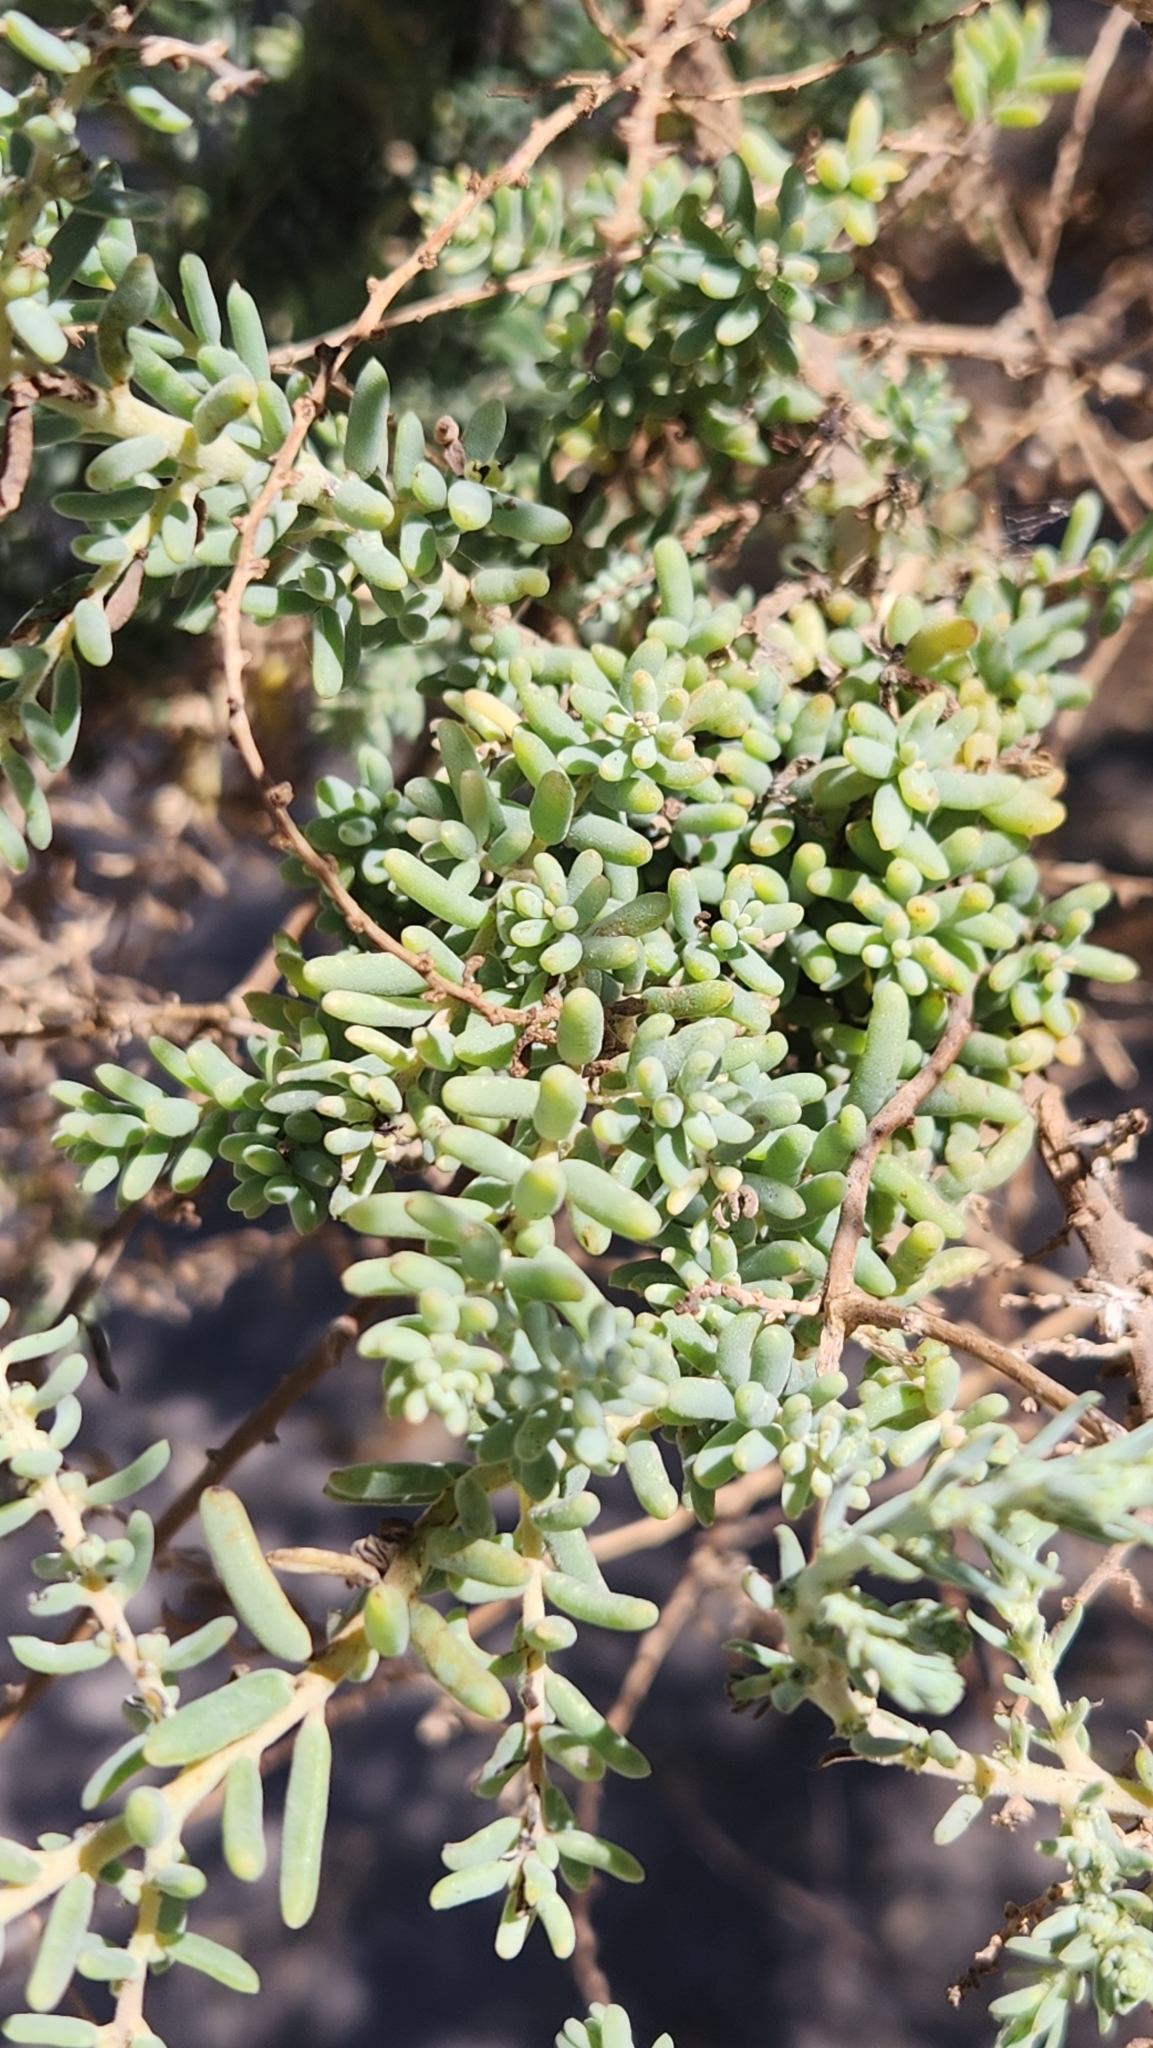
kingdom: Plantae
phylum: Tracheophyta
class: Magnoliopsida
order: Caryophyllales
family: Amaranthaceae
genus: Suaeda
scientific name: Suaeda nigra
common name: Bush seepweed
